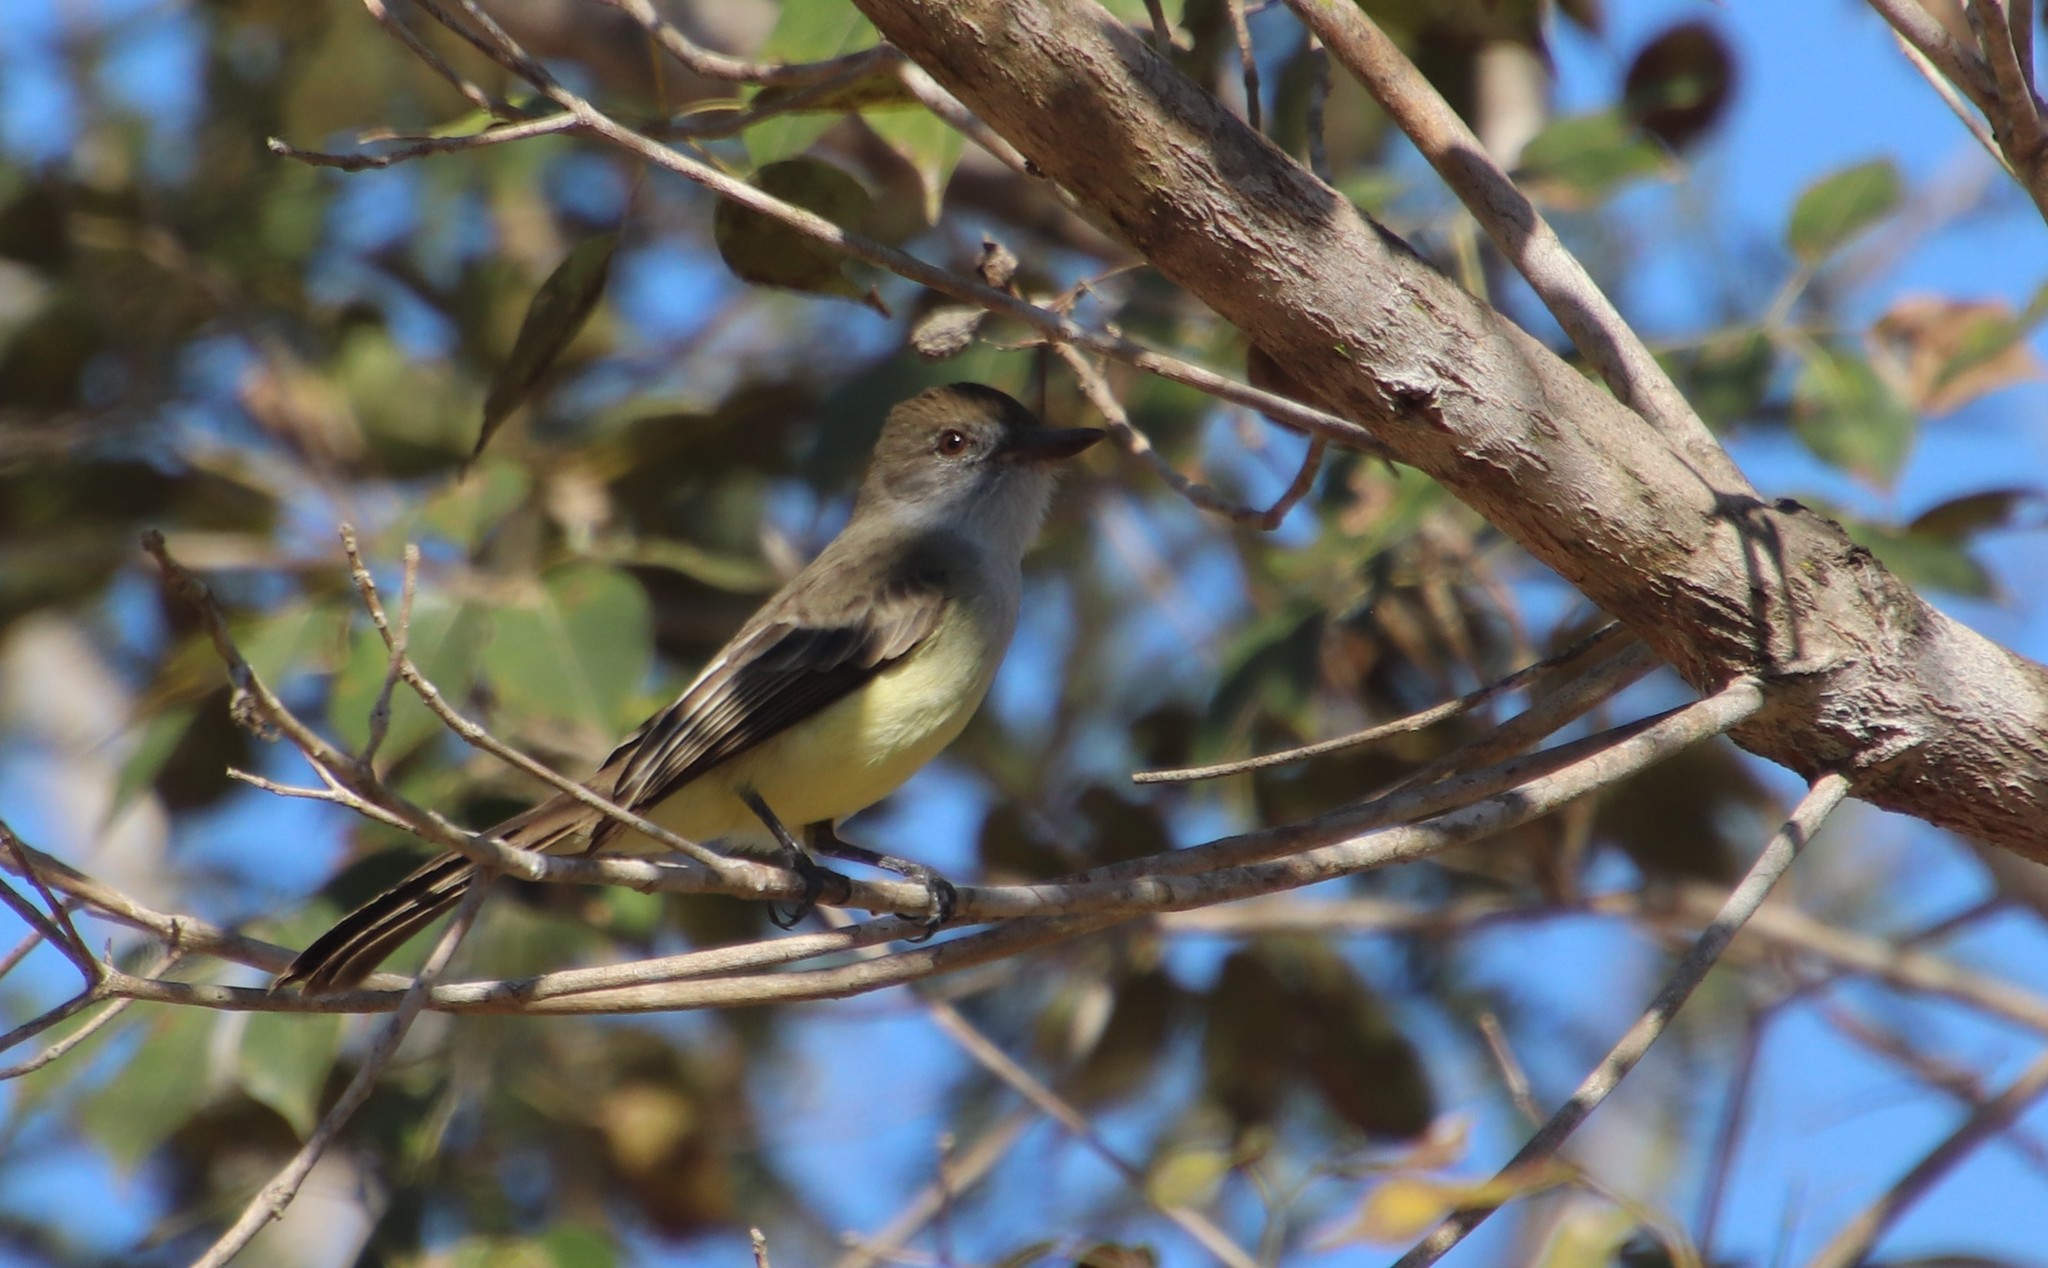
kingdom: Animalia
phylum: Chordata
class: Aves
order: Passeriformes
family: Tyrannidae
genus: Myiarchus
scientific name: Myiarchus ferox
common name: Short-crested flycatcher
